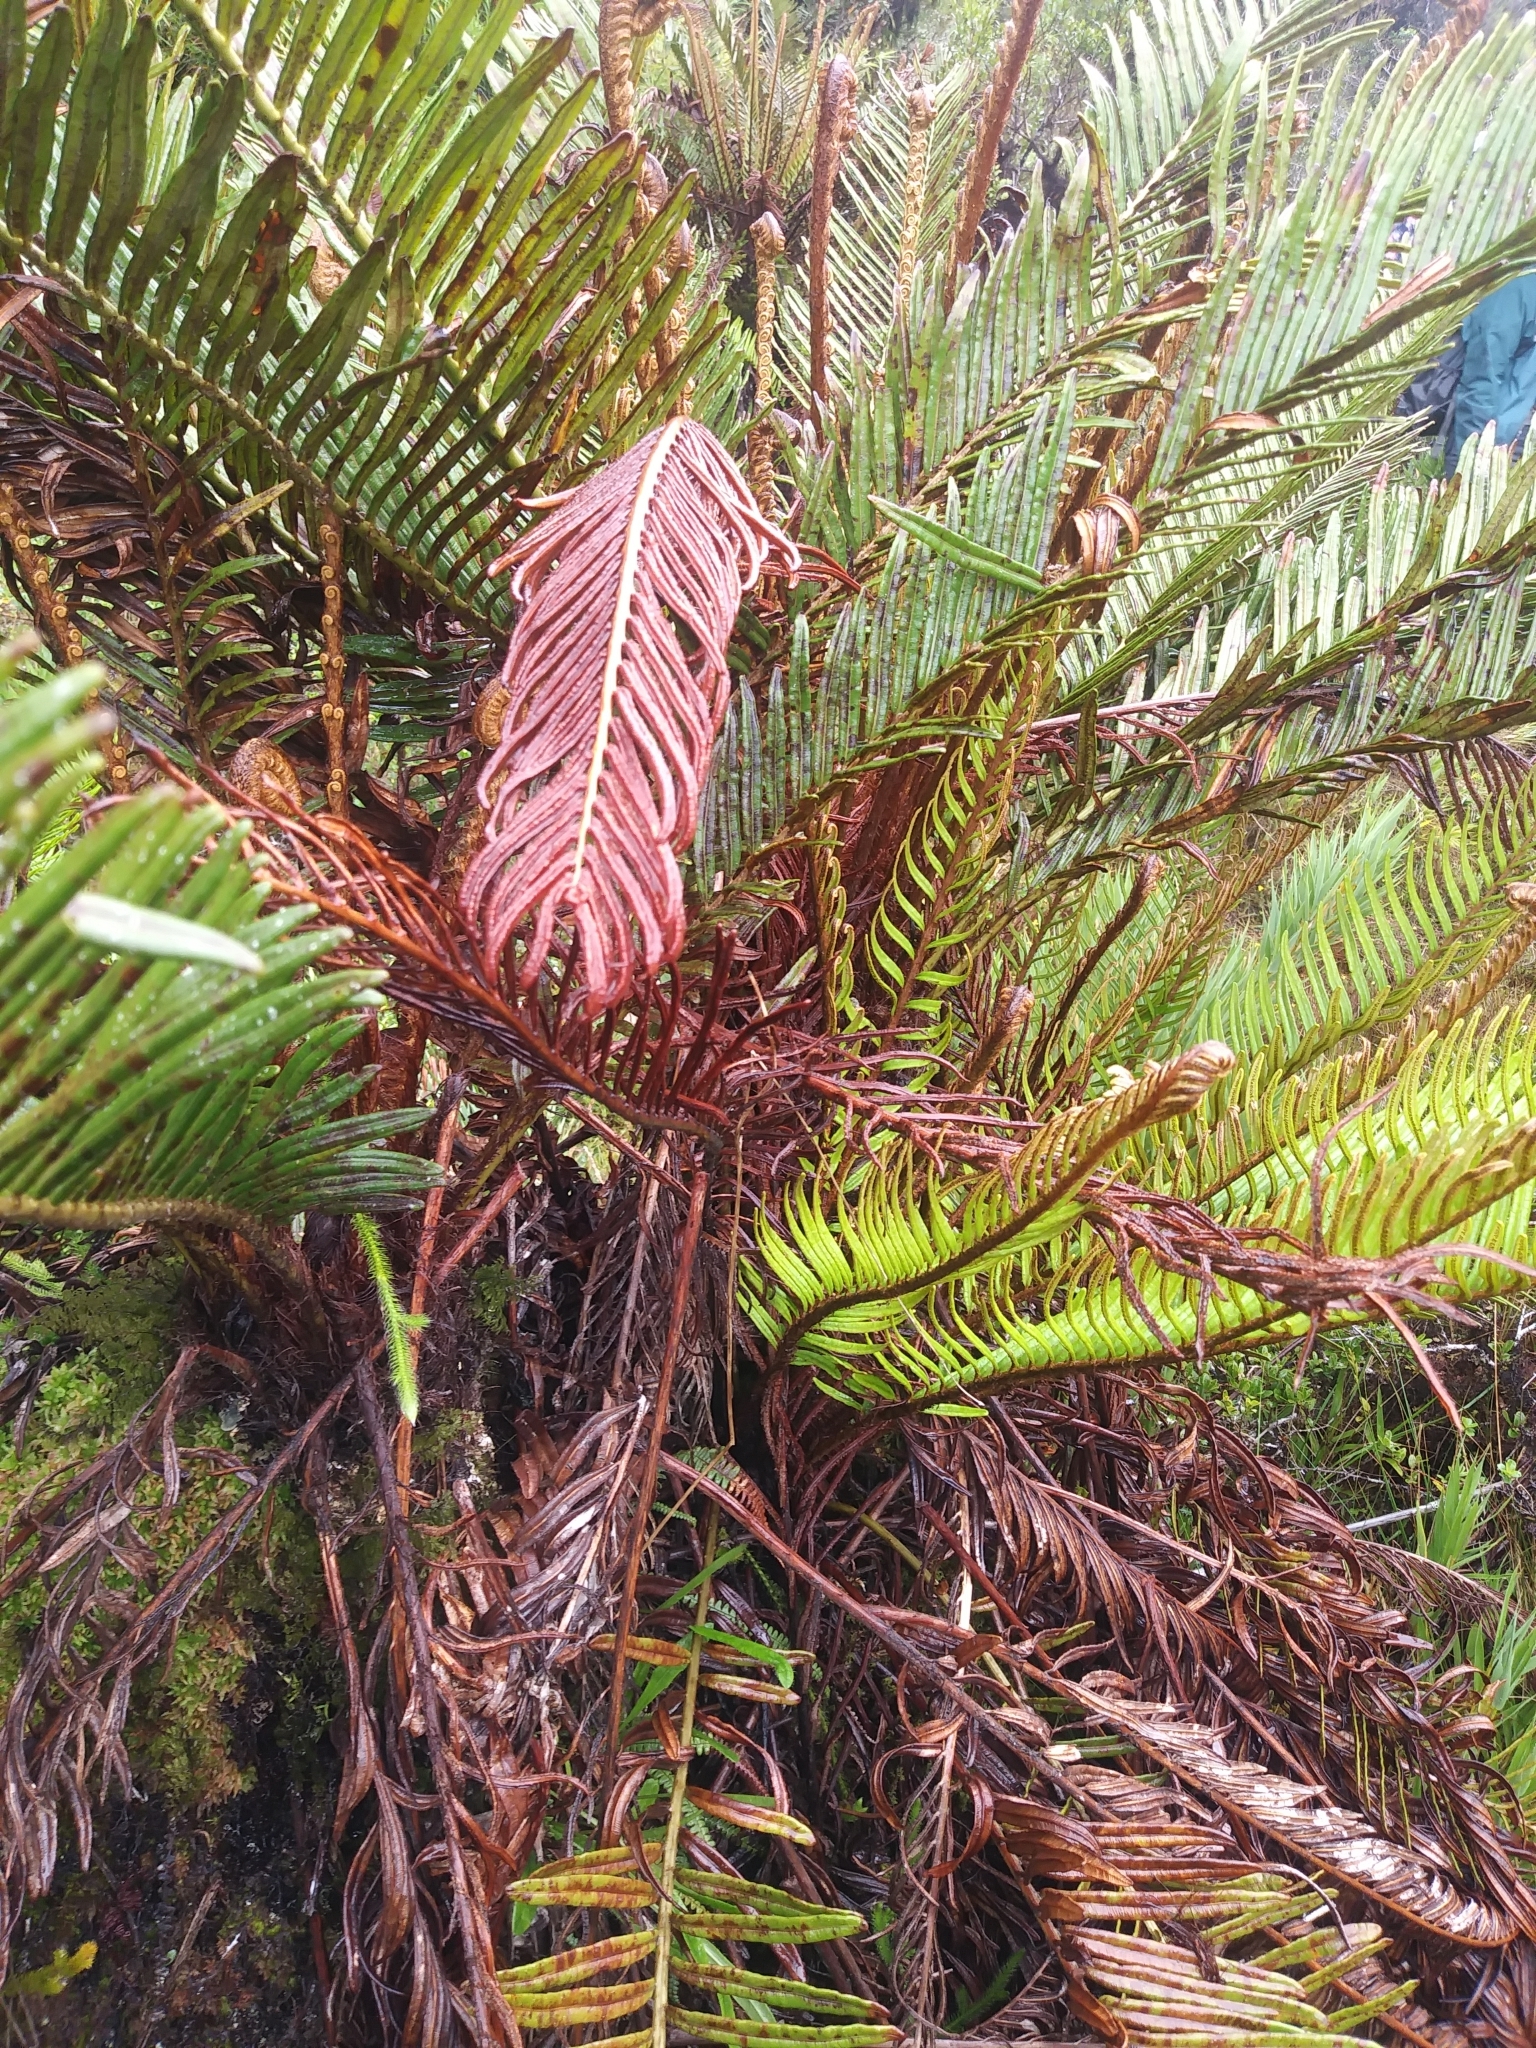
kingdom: Plantae
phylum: Tracheophyta
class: Polypodiopsida
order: Polypodiales
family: Blechnaceae
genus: Lomariocycas
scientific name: Lomariocycas aurata
